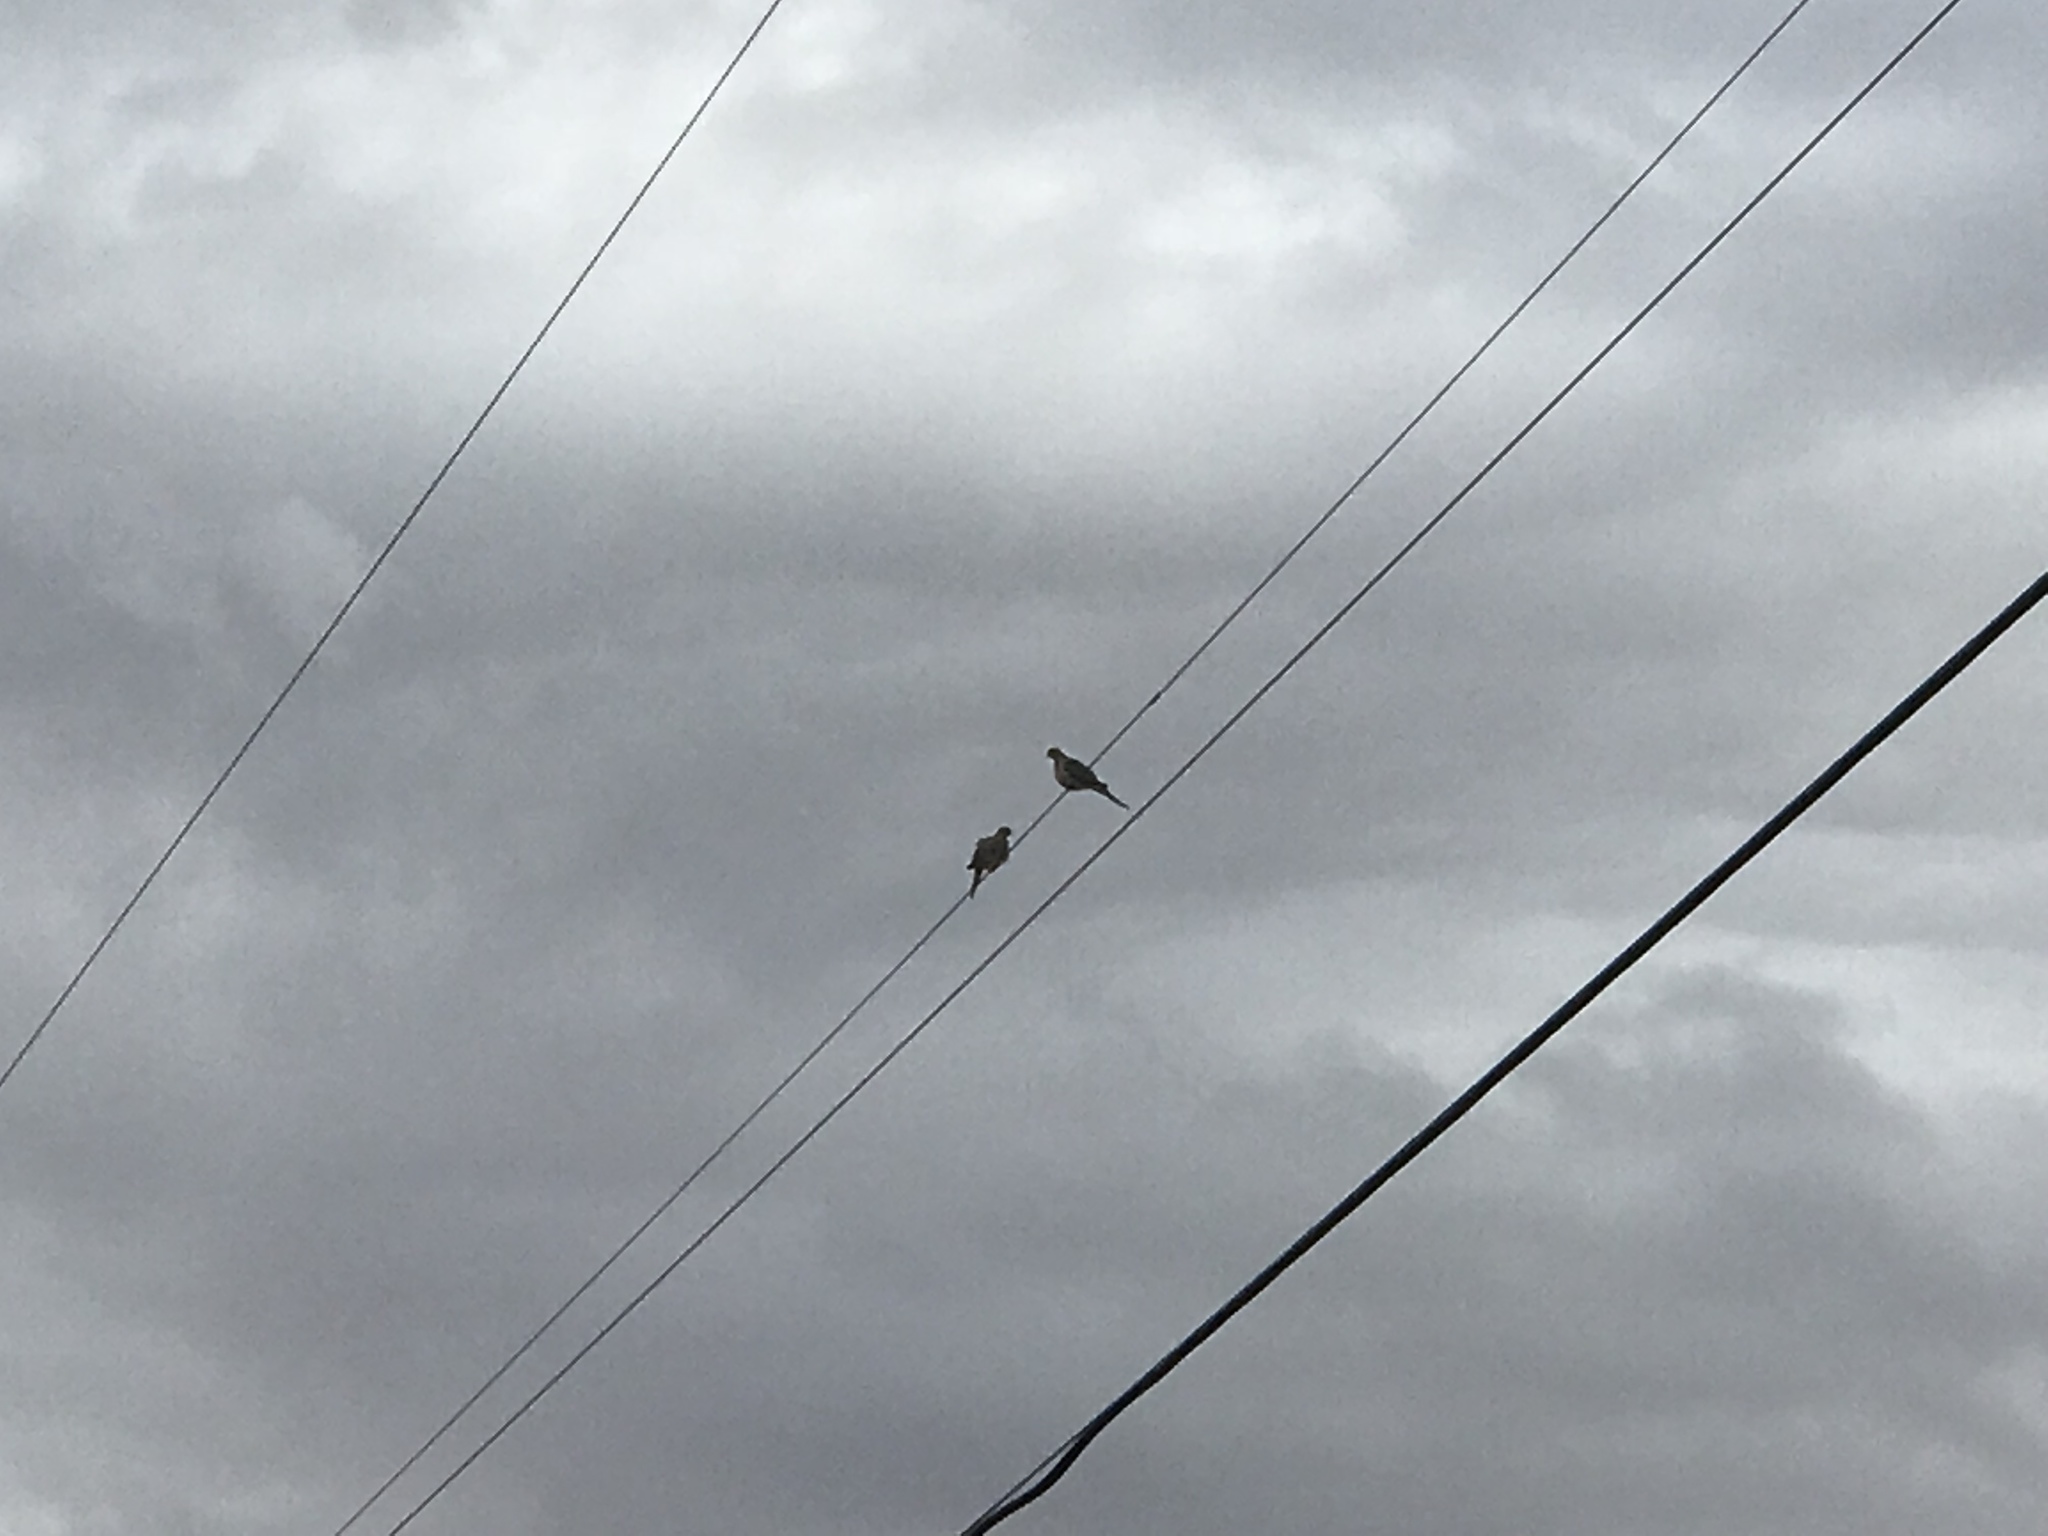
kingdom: Animalia
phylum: Chordata
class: Aves
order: Columbiformes
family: Columbidae
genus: Zenaida
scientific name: Zenaida macroura
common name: Mourning dove
